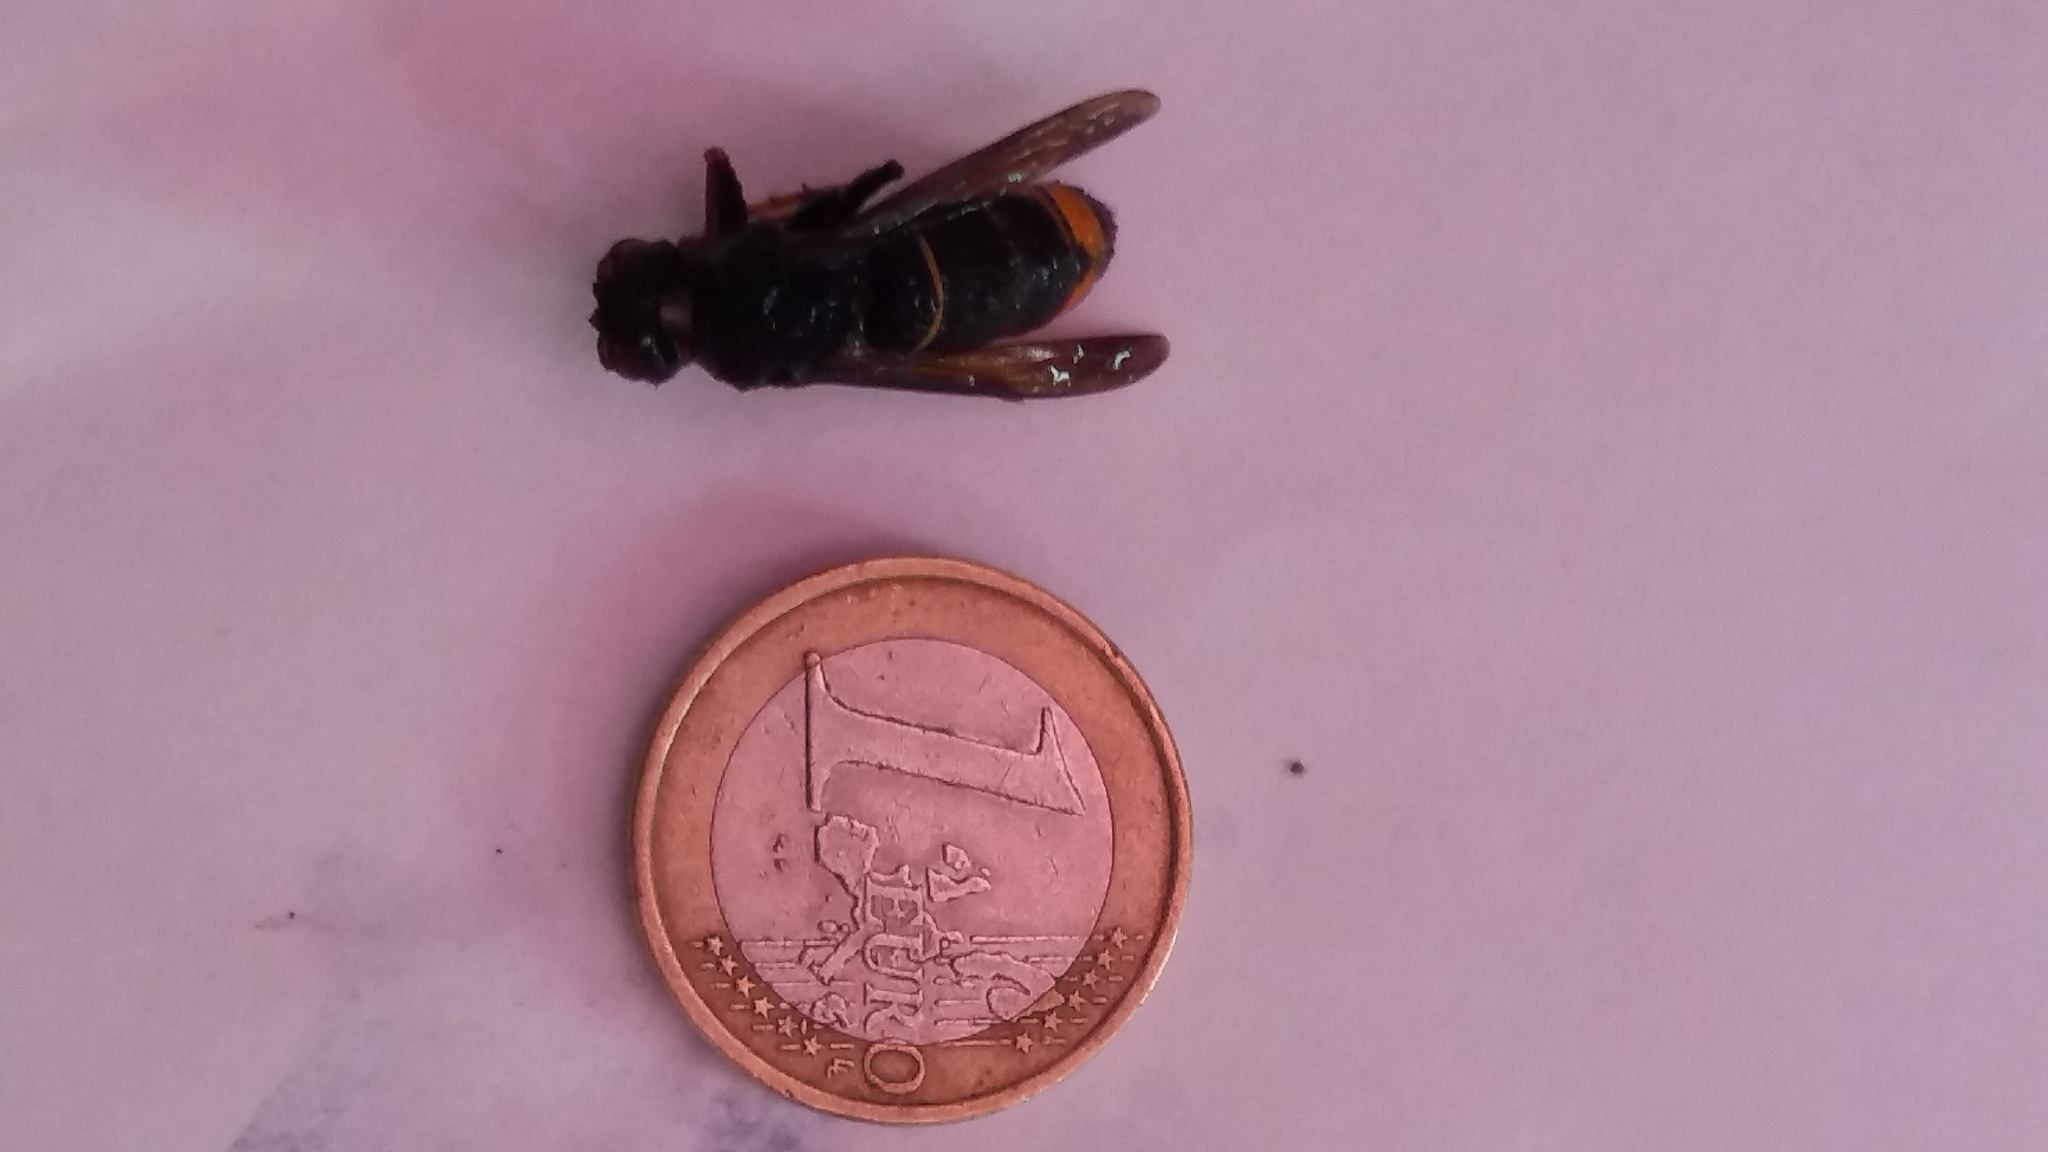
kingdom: Animalia
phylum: Arthropoda
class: Insecta
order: Hymenoptera
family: Vespidae
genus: Vespa
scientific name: Vespa velutina
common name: Asian hornet
